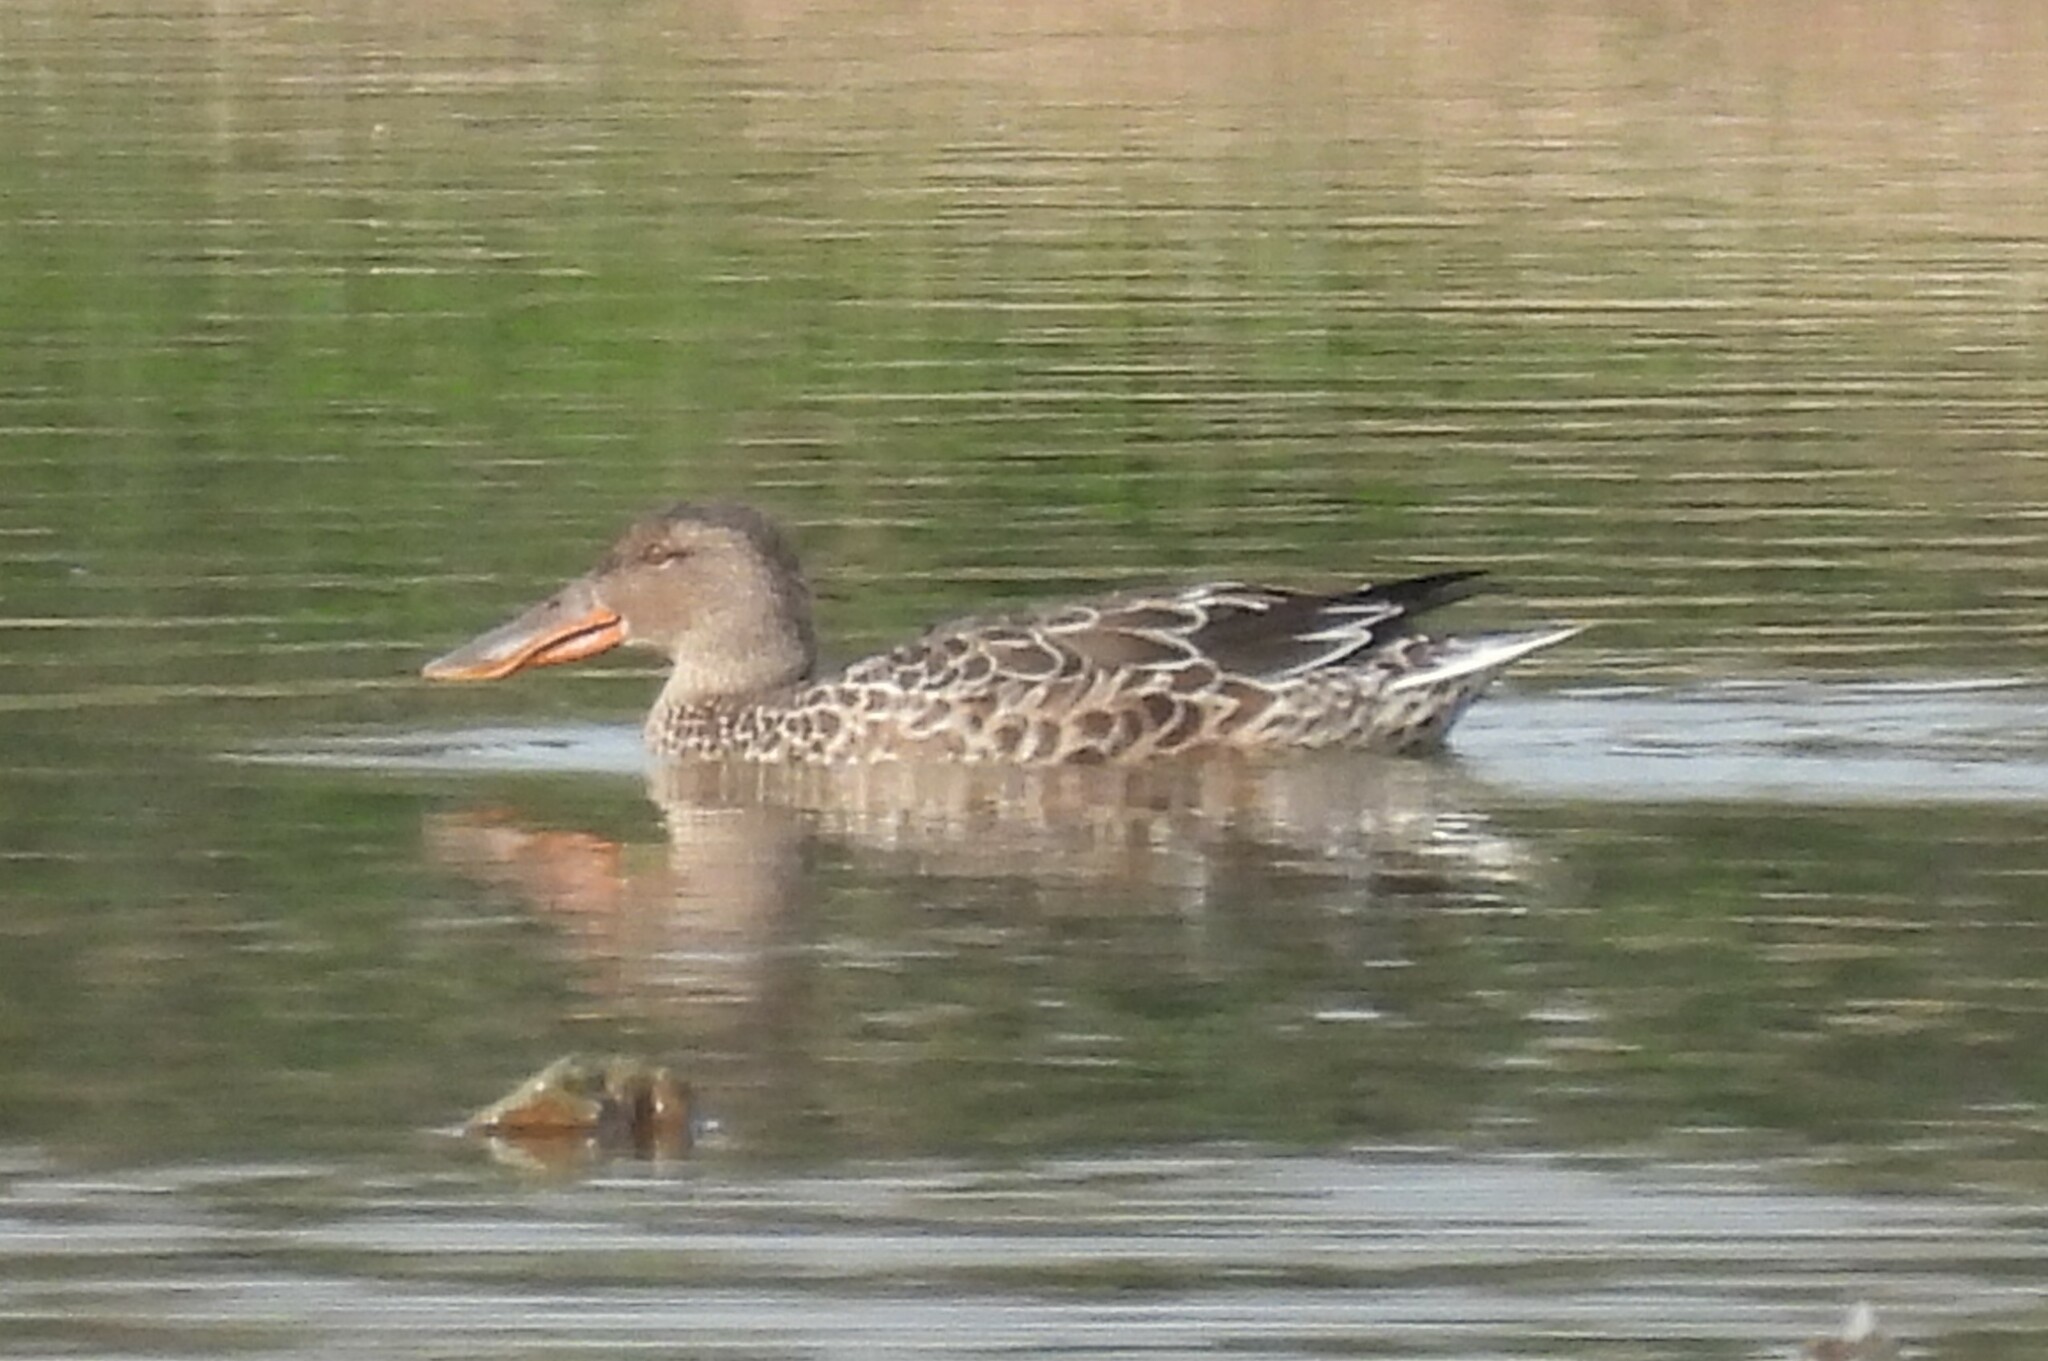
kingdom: Animalia
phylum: Chordata
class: Aves
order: Anseriformes
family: Anatidae
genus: Spatula
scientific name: Spatula clypeata
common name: Northern shoveler
